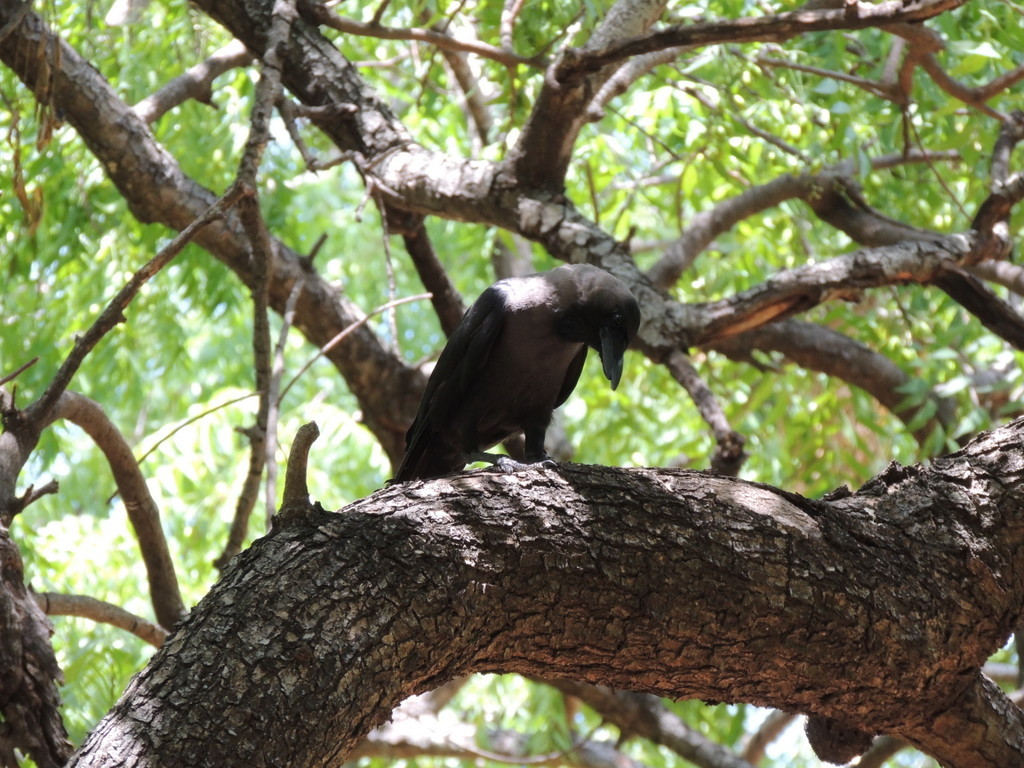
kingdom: Animalia
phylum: Chordata
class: Aves
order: Passeriformes
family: Corvidae
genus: Corvus
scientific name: Corvus splendens
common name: House crow
